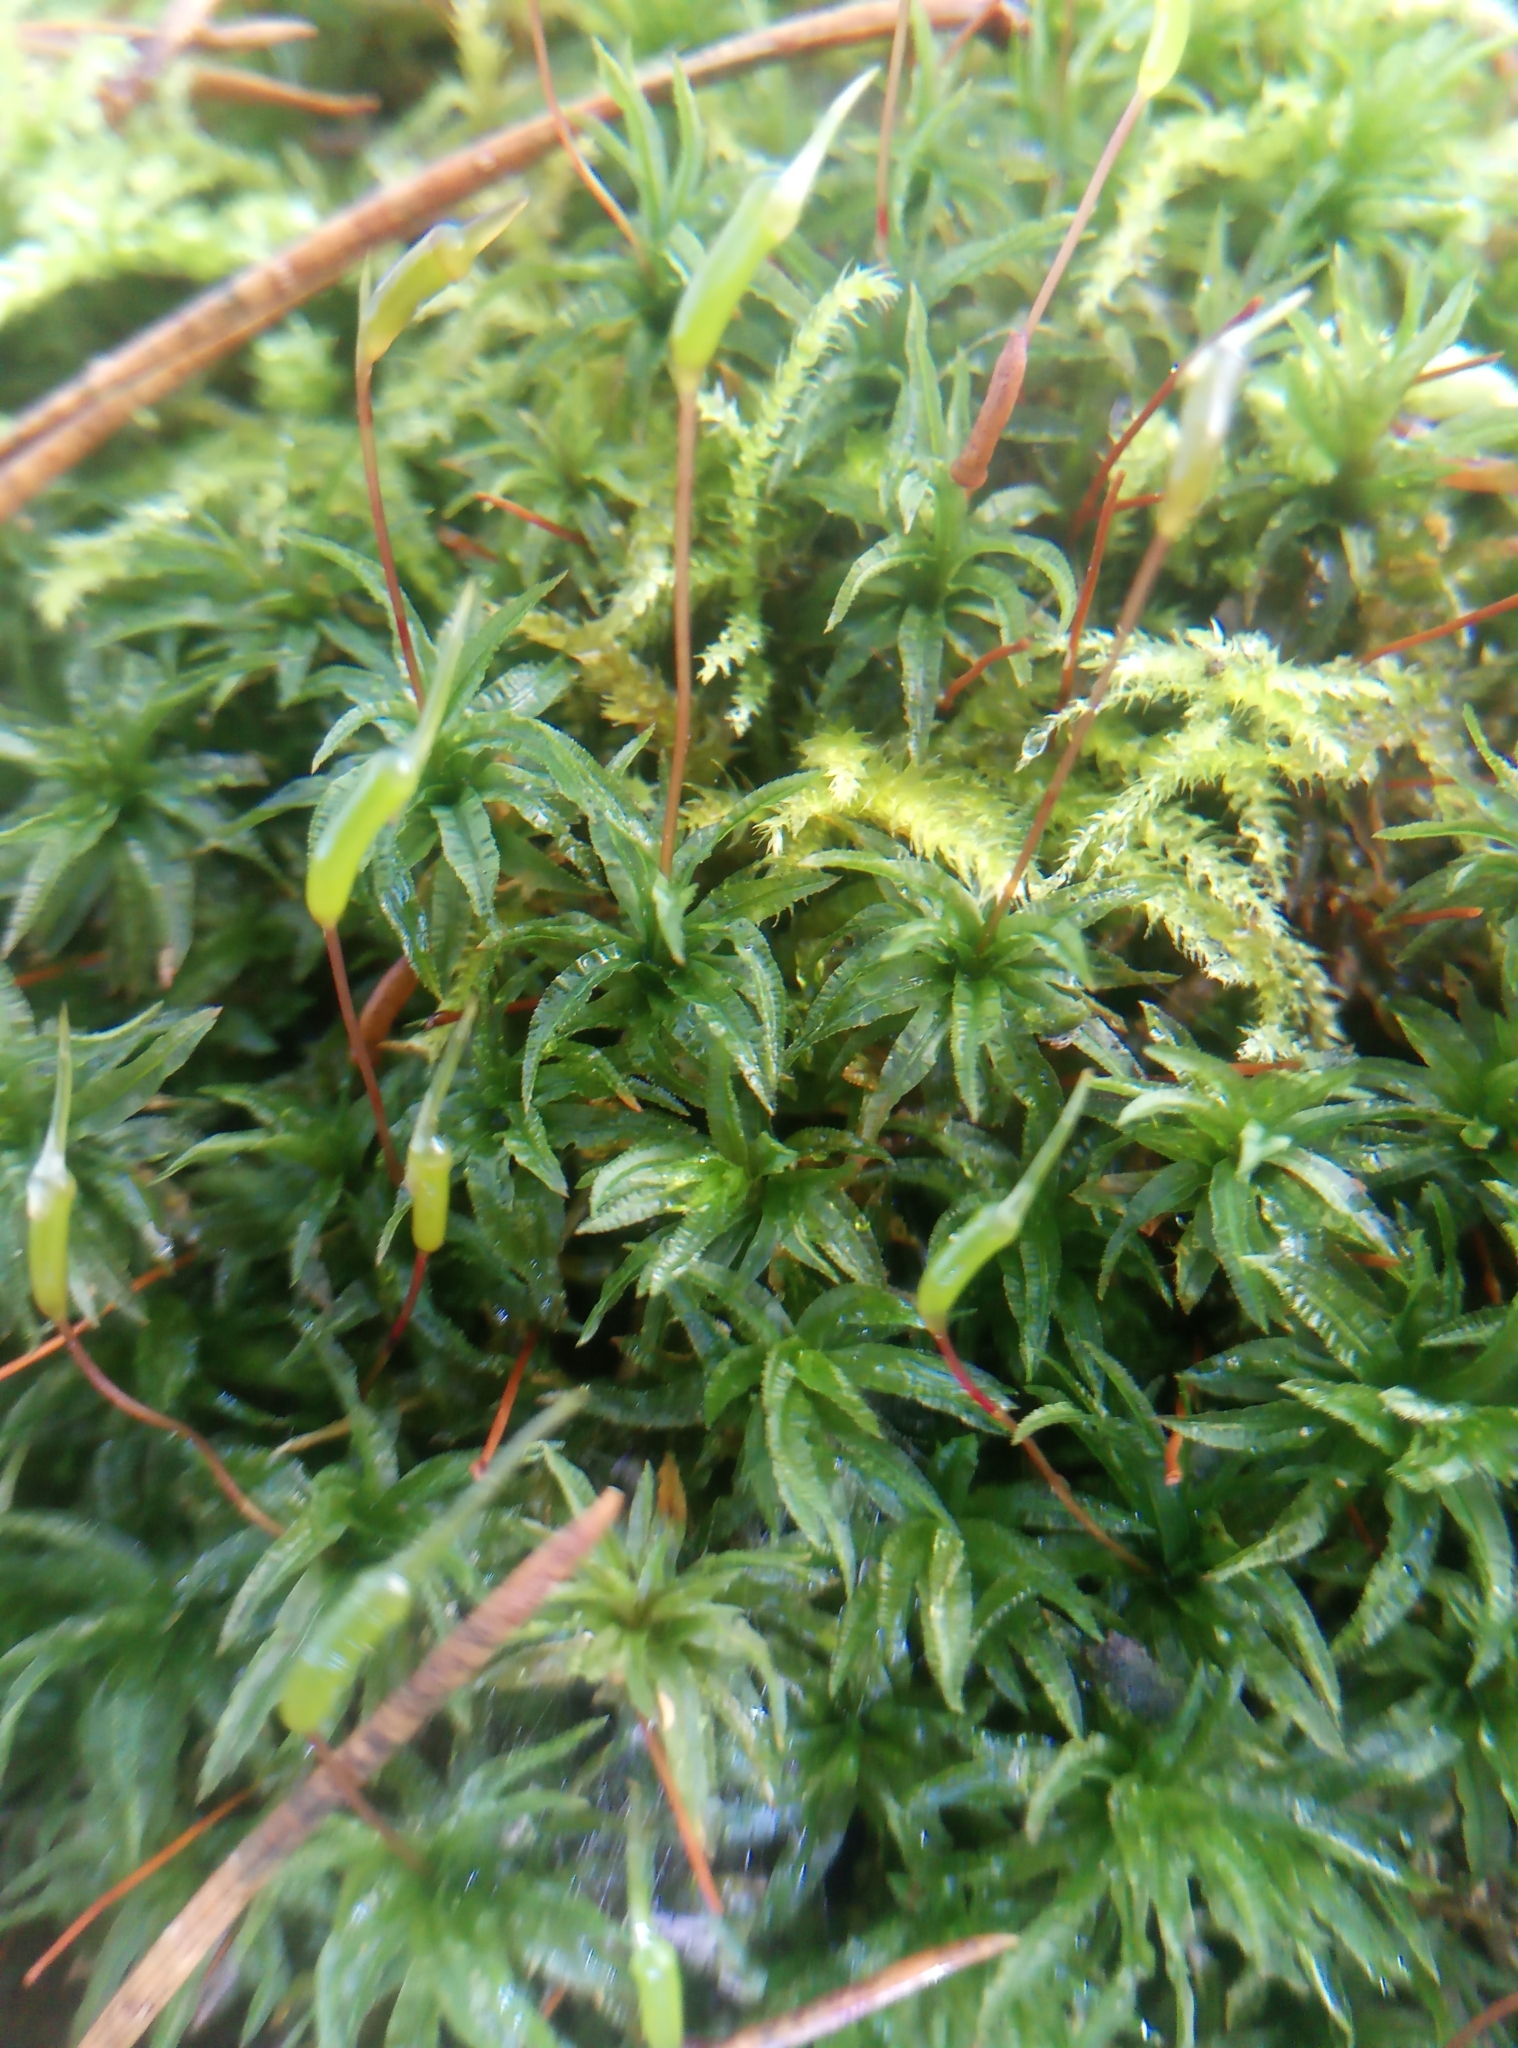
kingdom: Plantae
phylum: Bryophyta
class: Polytrichopsida
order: Polytrichales
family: Polytrichaceae
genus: Atrichum
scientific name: Atrichum undulatum
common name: Common smoothcap
